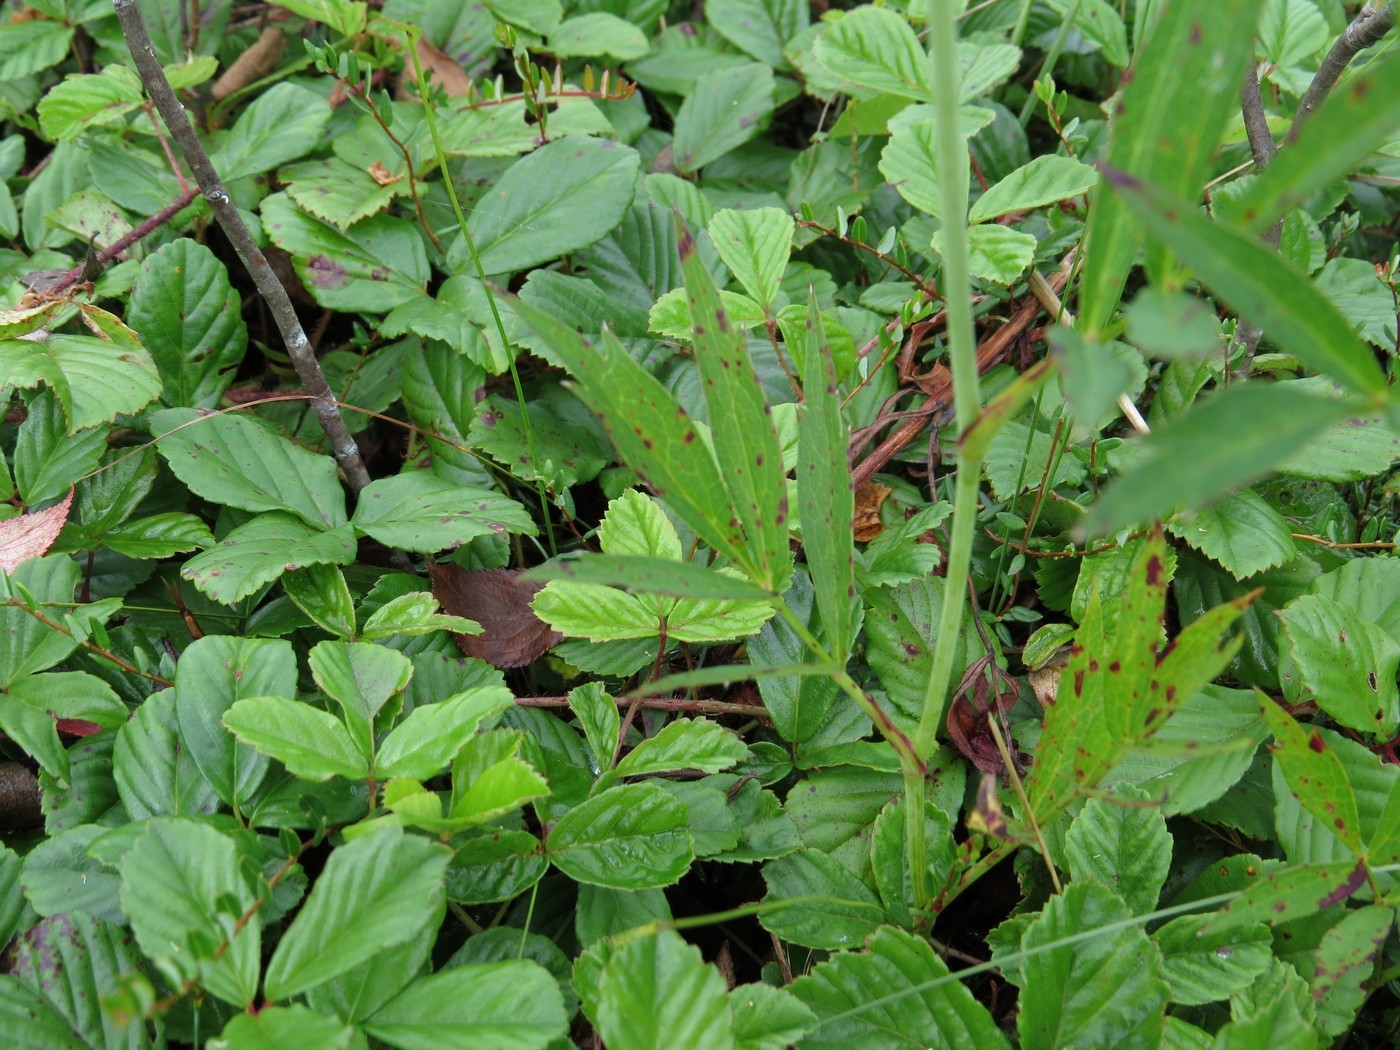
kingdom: Plantae
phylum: Tracheophyta
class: Magnoliopsida
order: Apiales
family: Apiaceae
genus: Oxypolis
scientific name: Oxypolis rigidior
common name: Cowbane
